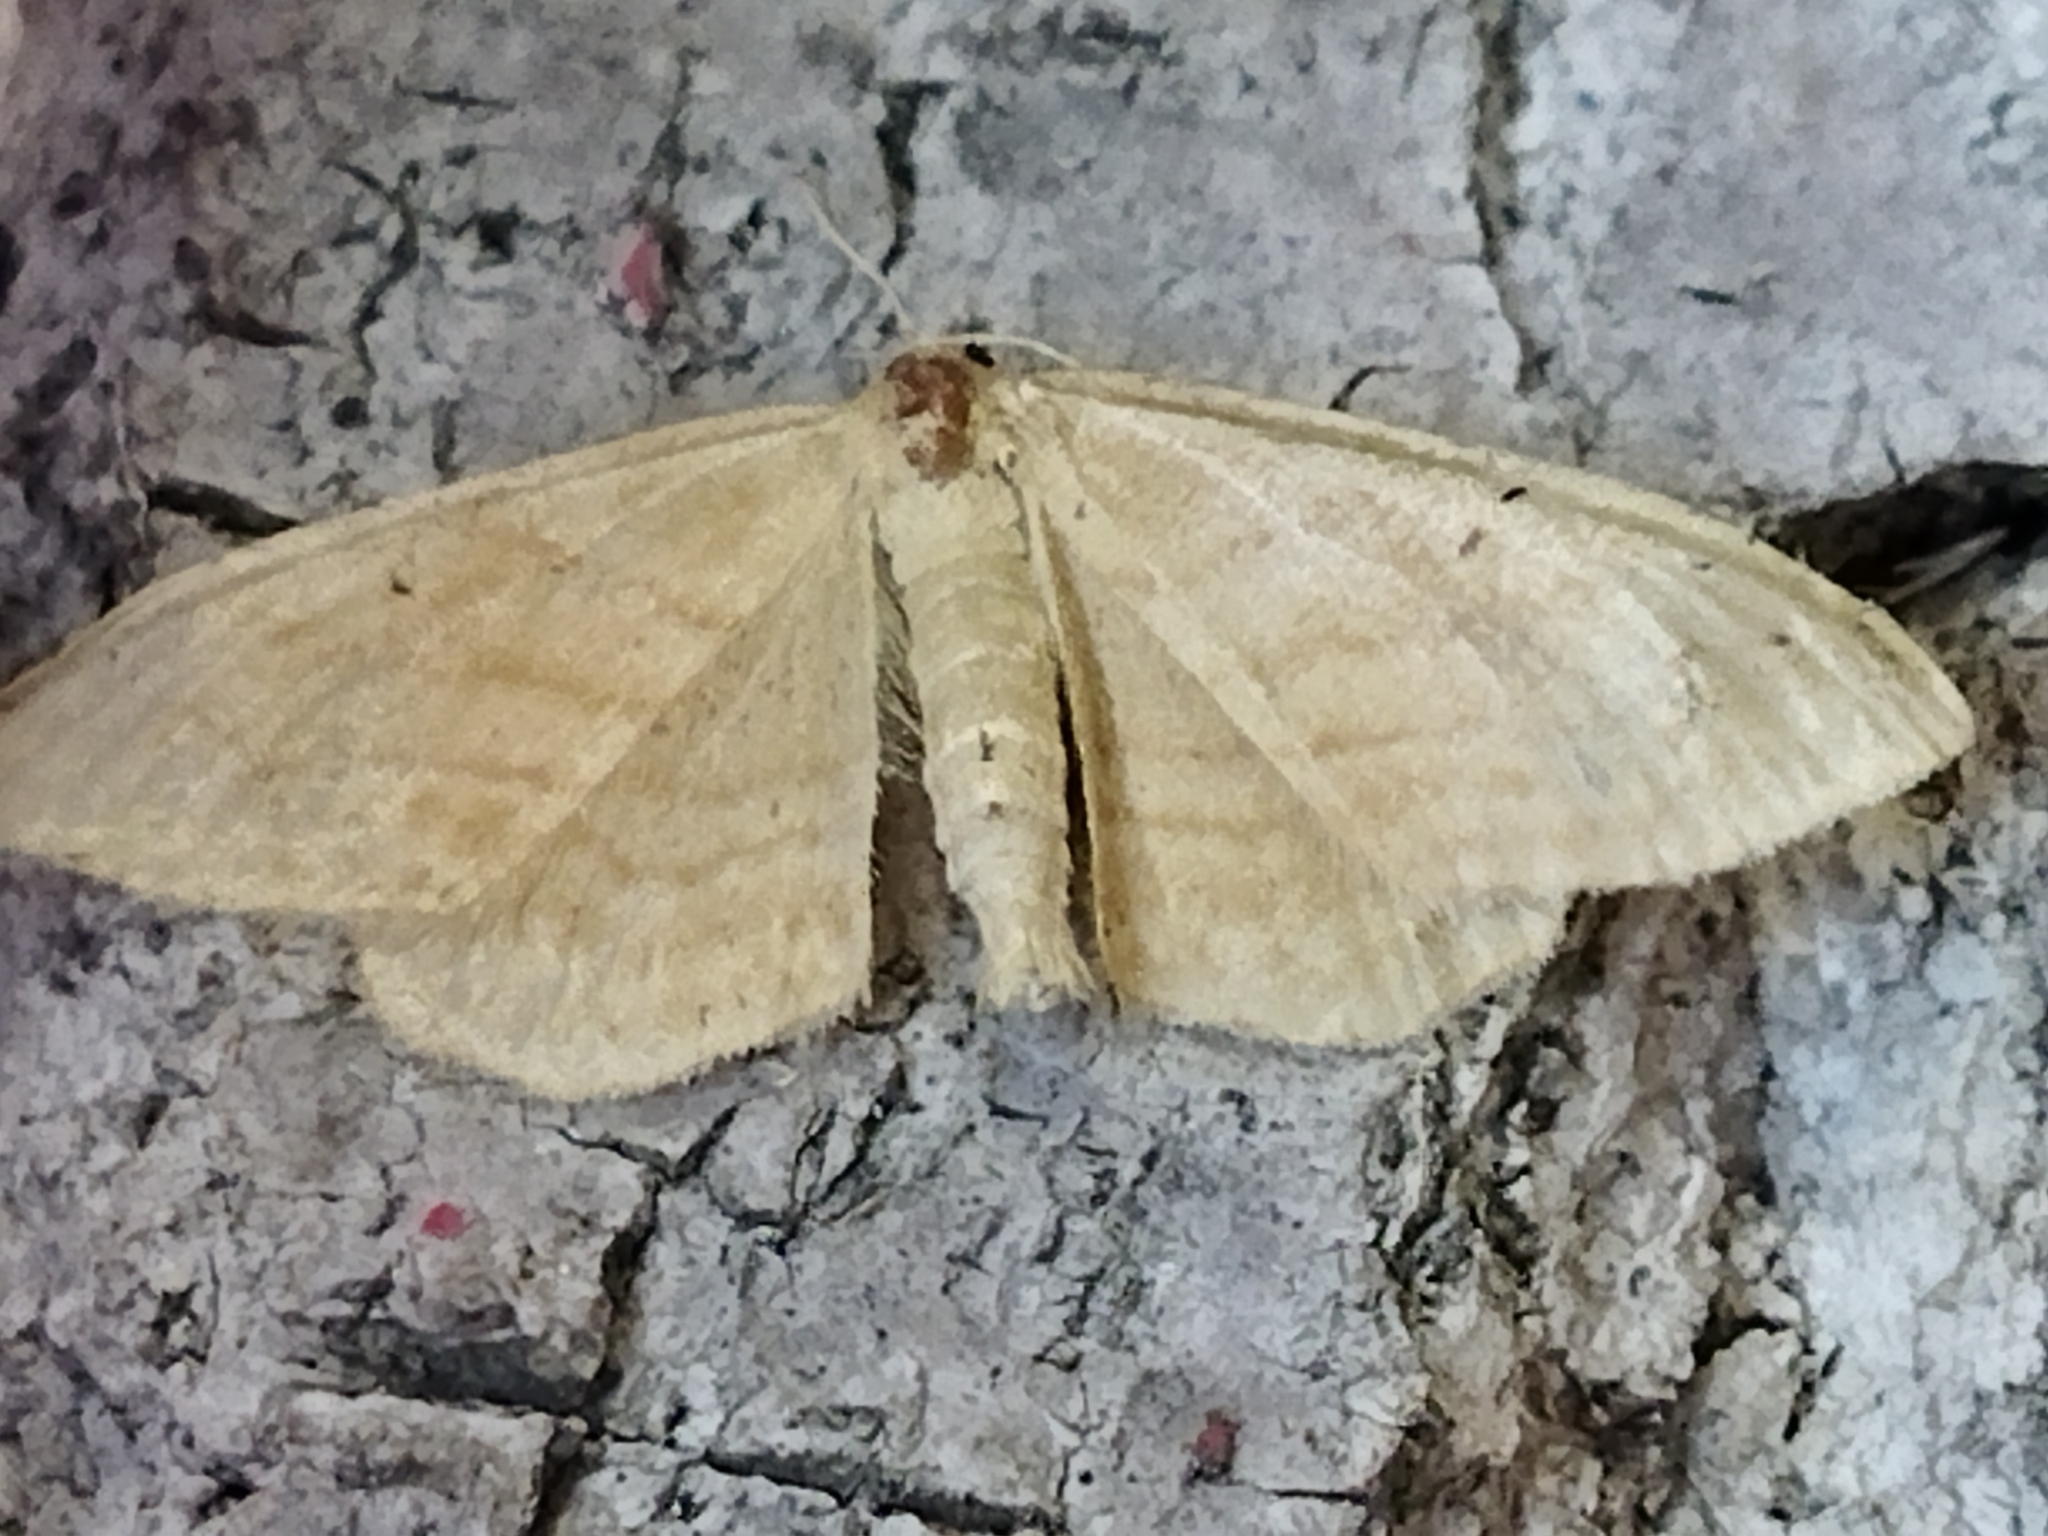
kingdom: Animalia
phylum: Arthropoda
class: Insecta
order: Lepidoptera
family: Geometridae
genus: Idaea
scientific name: Idaea rufaria
